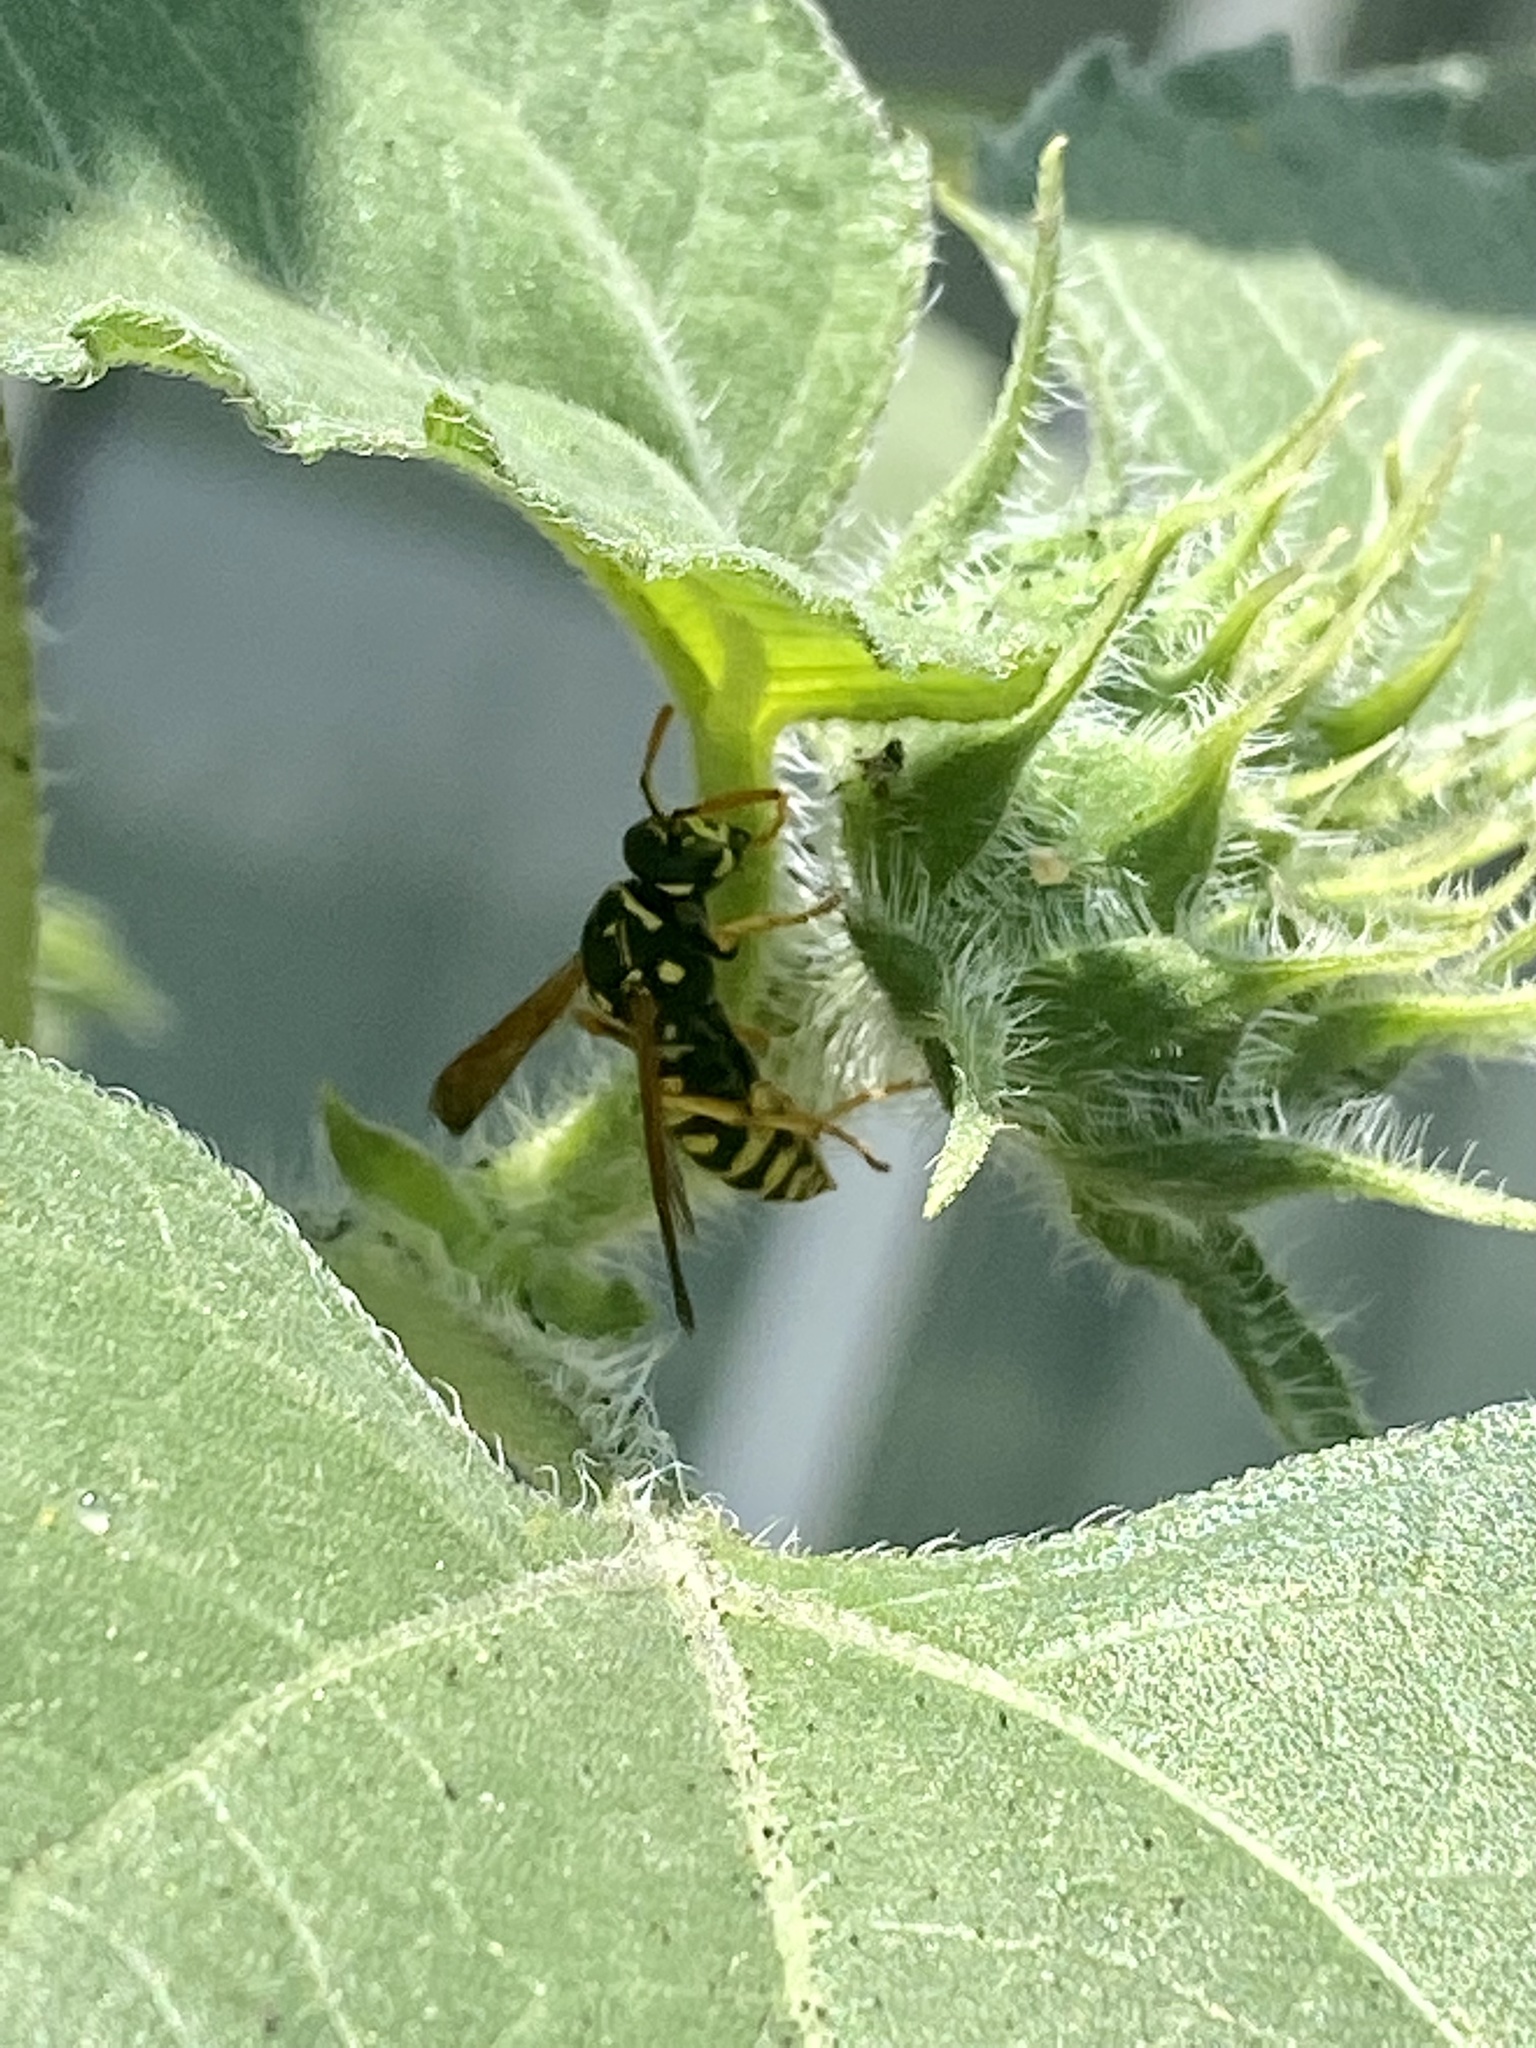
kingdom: Animalia
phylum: Arthropoda
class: Insecta
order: Hymenoptera
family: Eumenidae
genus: Polistes
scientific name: Polistes dominula
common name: Paper wasp
